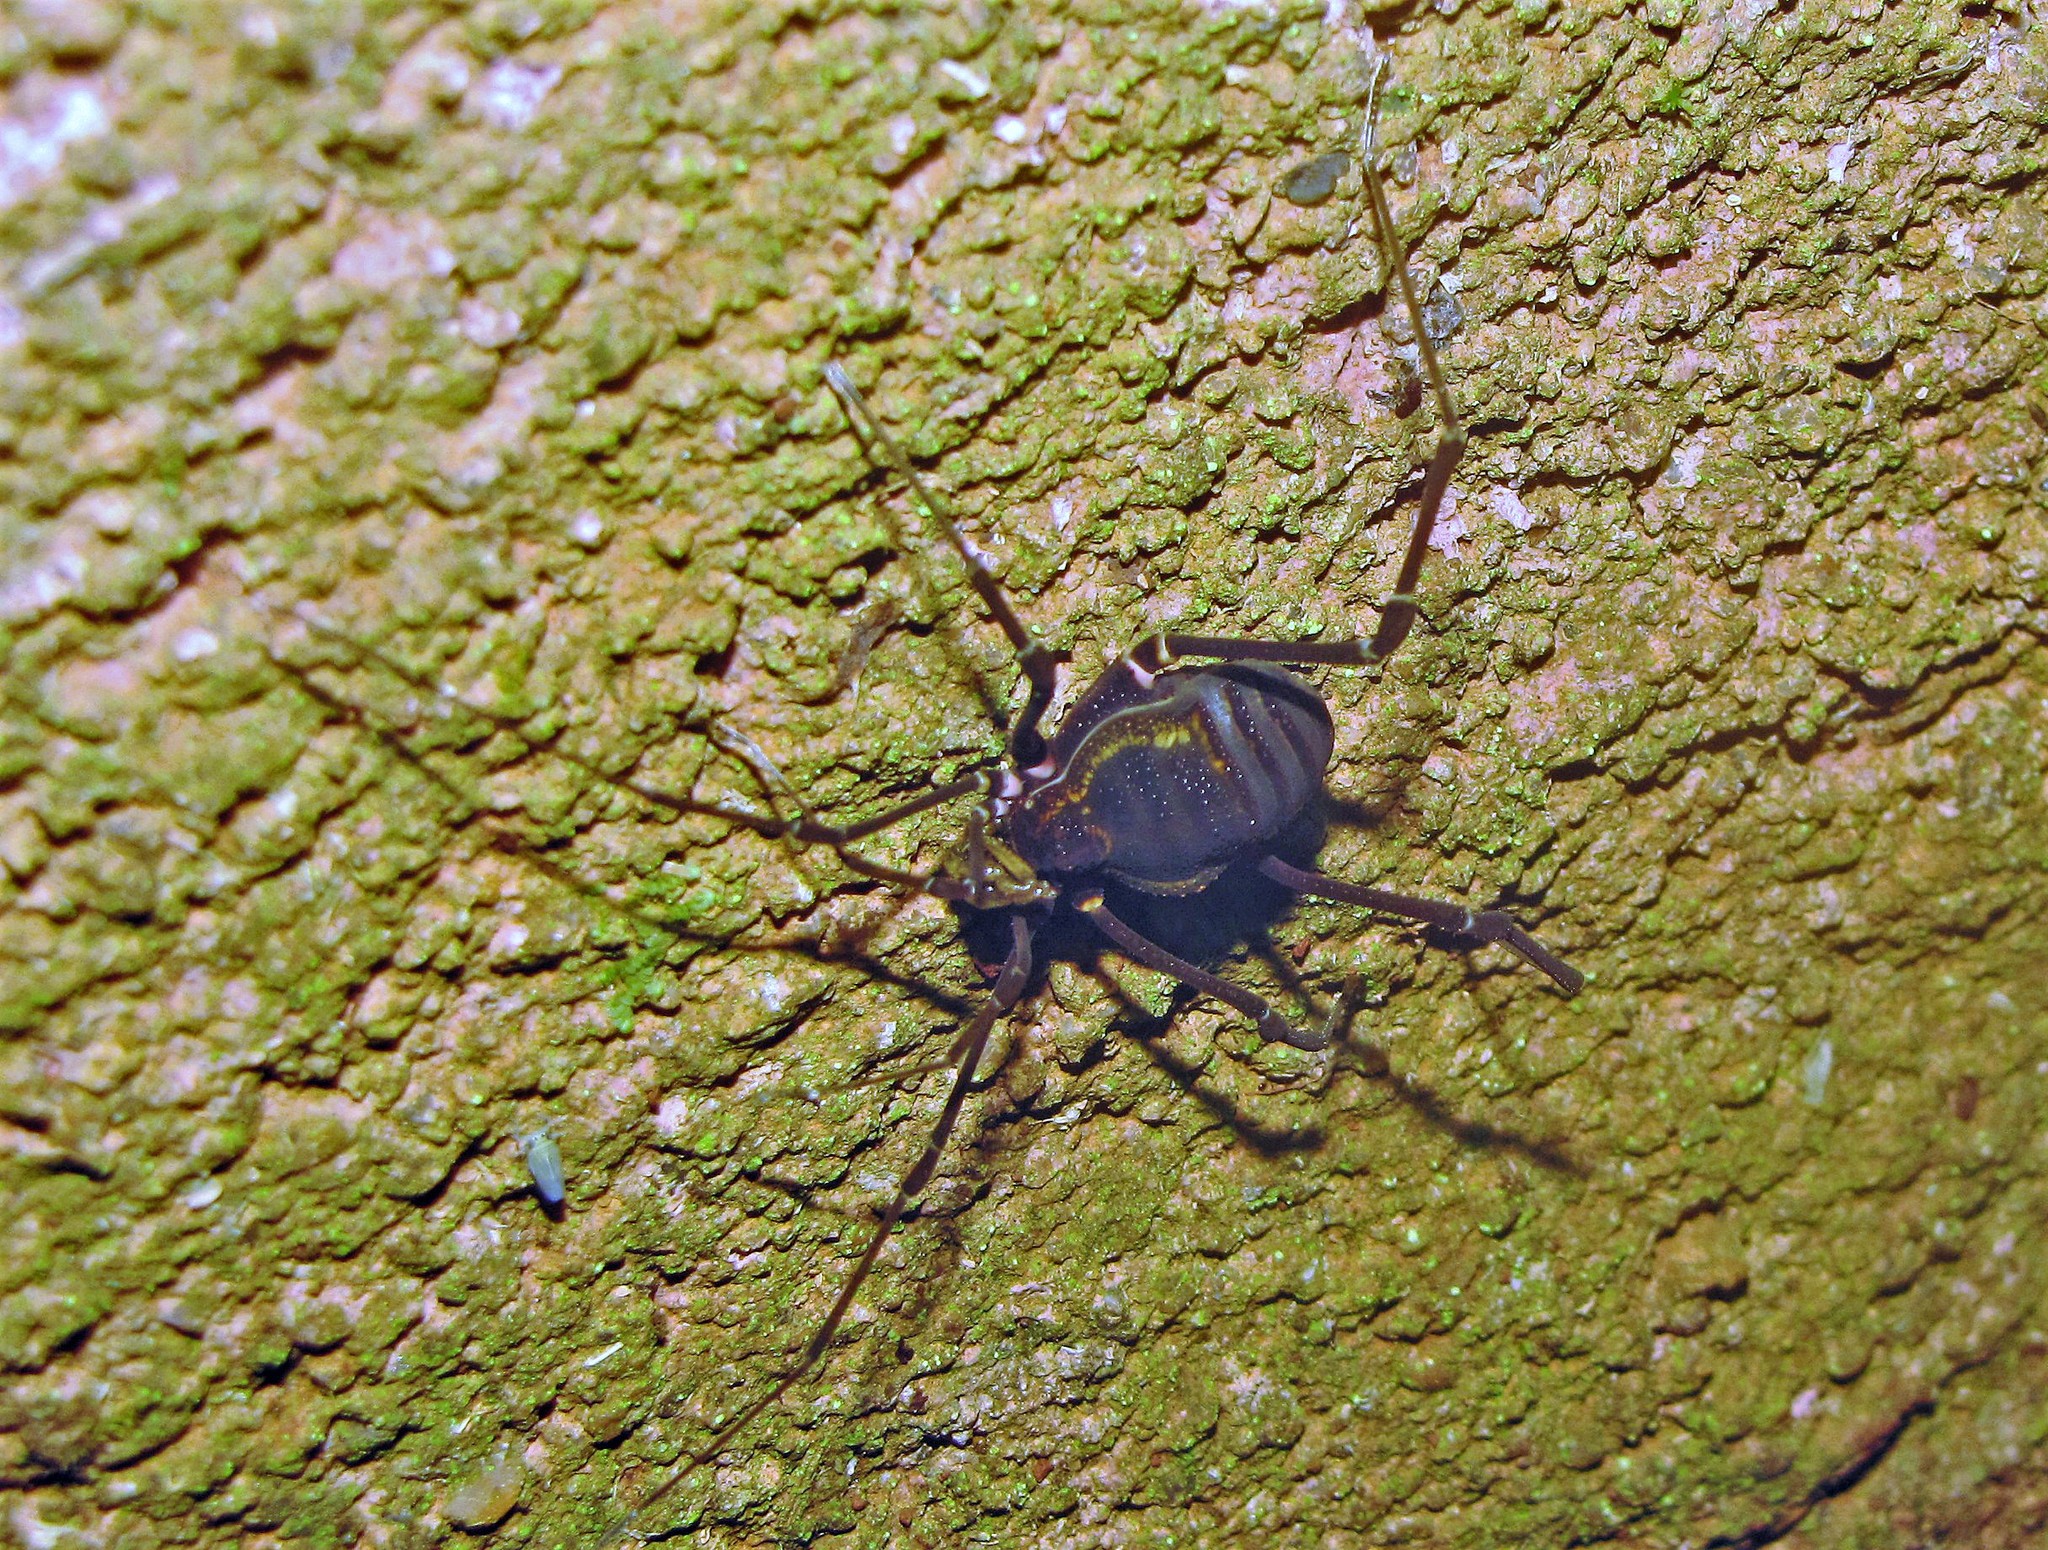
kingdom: Animalia
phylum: Arthropoda
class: Arachnida
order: Opiliones
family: Gonyleptidae
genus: Geraeocormobius
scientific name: Geraeocormobius sylvarum
